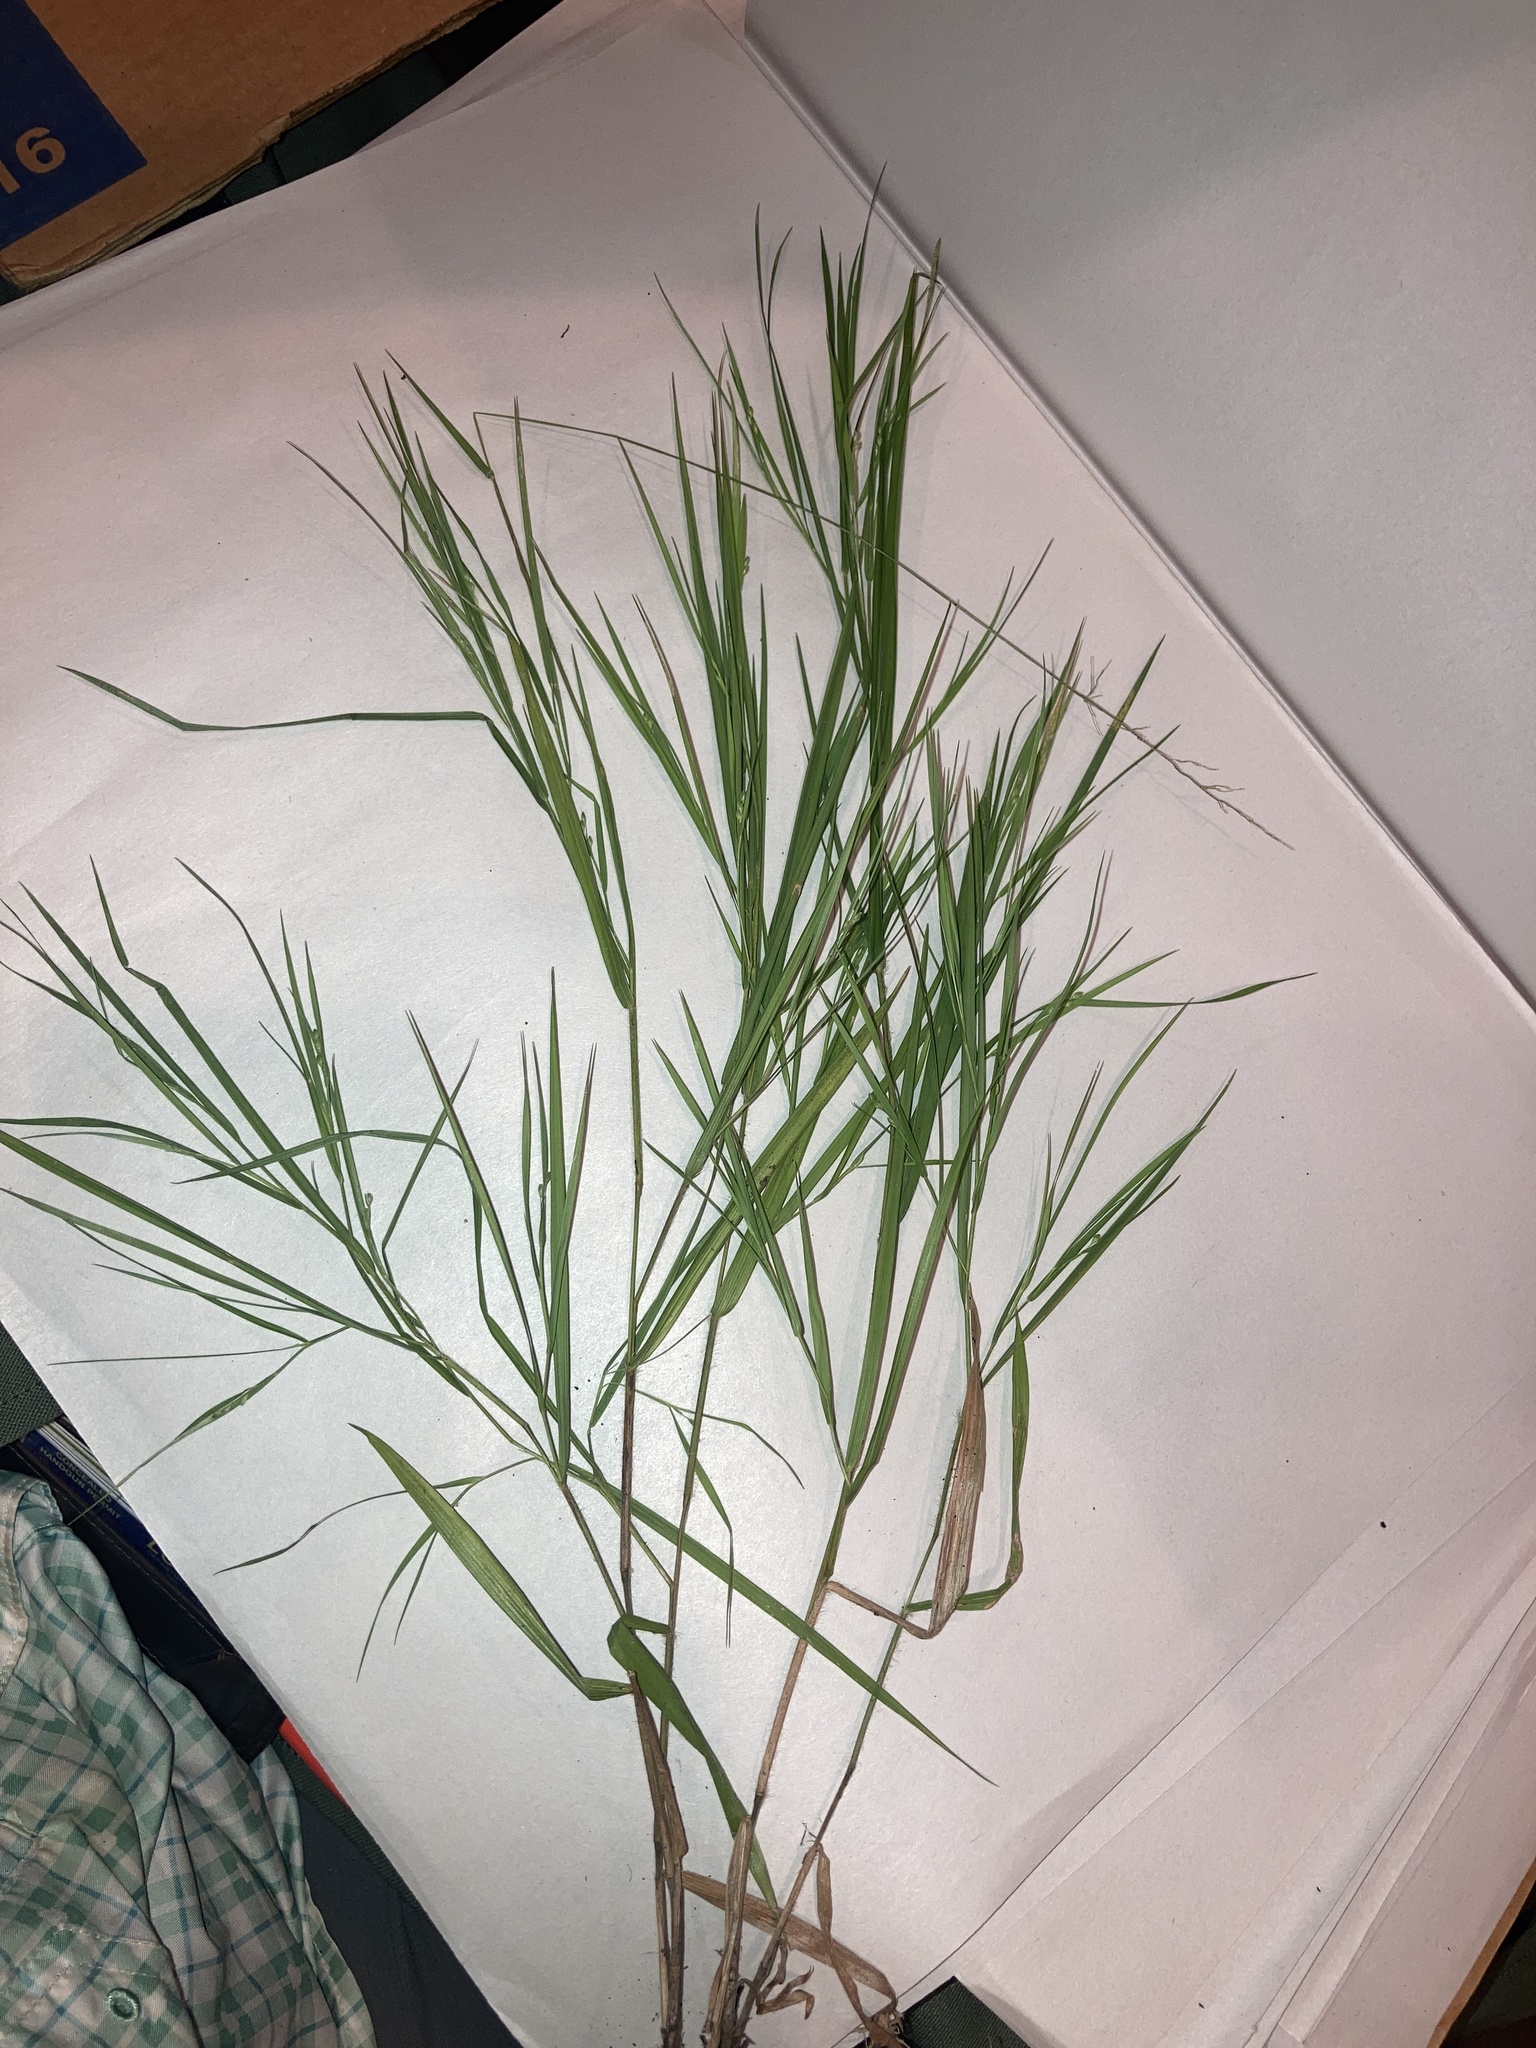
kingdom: Plantae
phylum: Tracheophyta
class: Liliopsida
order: Poales
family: Poaceae
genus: Dichanthelium
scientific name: Dichanthelium angustifolium
